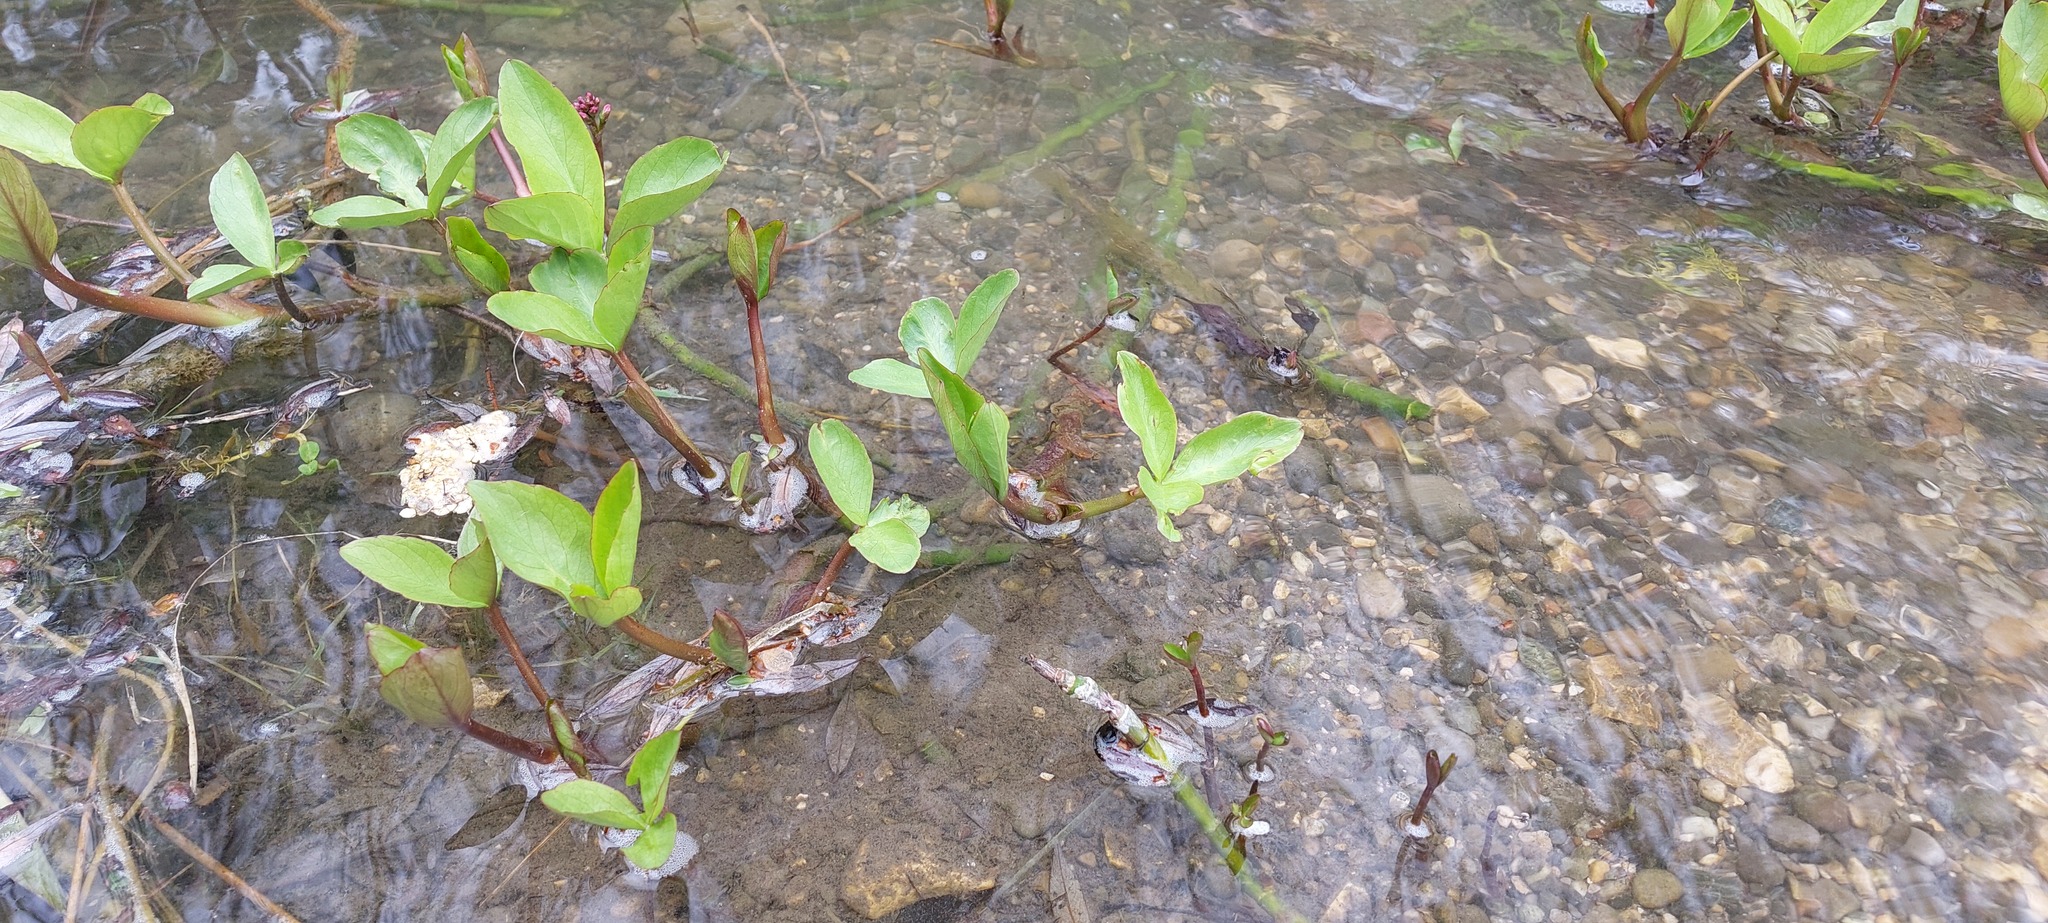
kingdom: Plantae
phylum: Tracheophyta
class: Magnoliopsida
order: Asterales
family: Menyanthaceae
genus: Menyanthes
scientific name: Menyanthes trifoliata
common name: Bogbean
